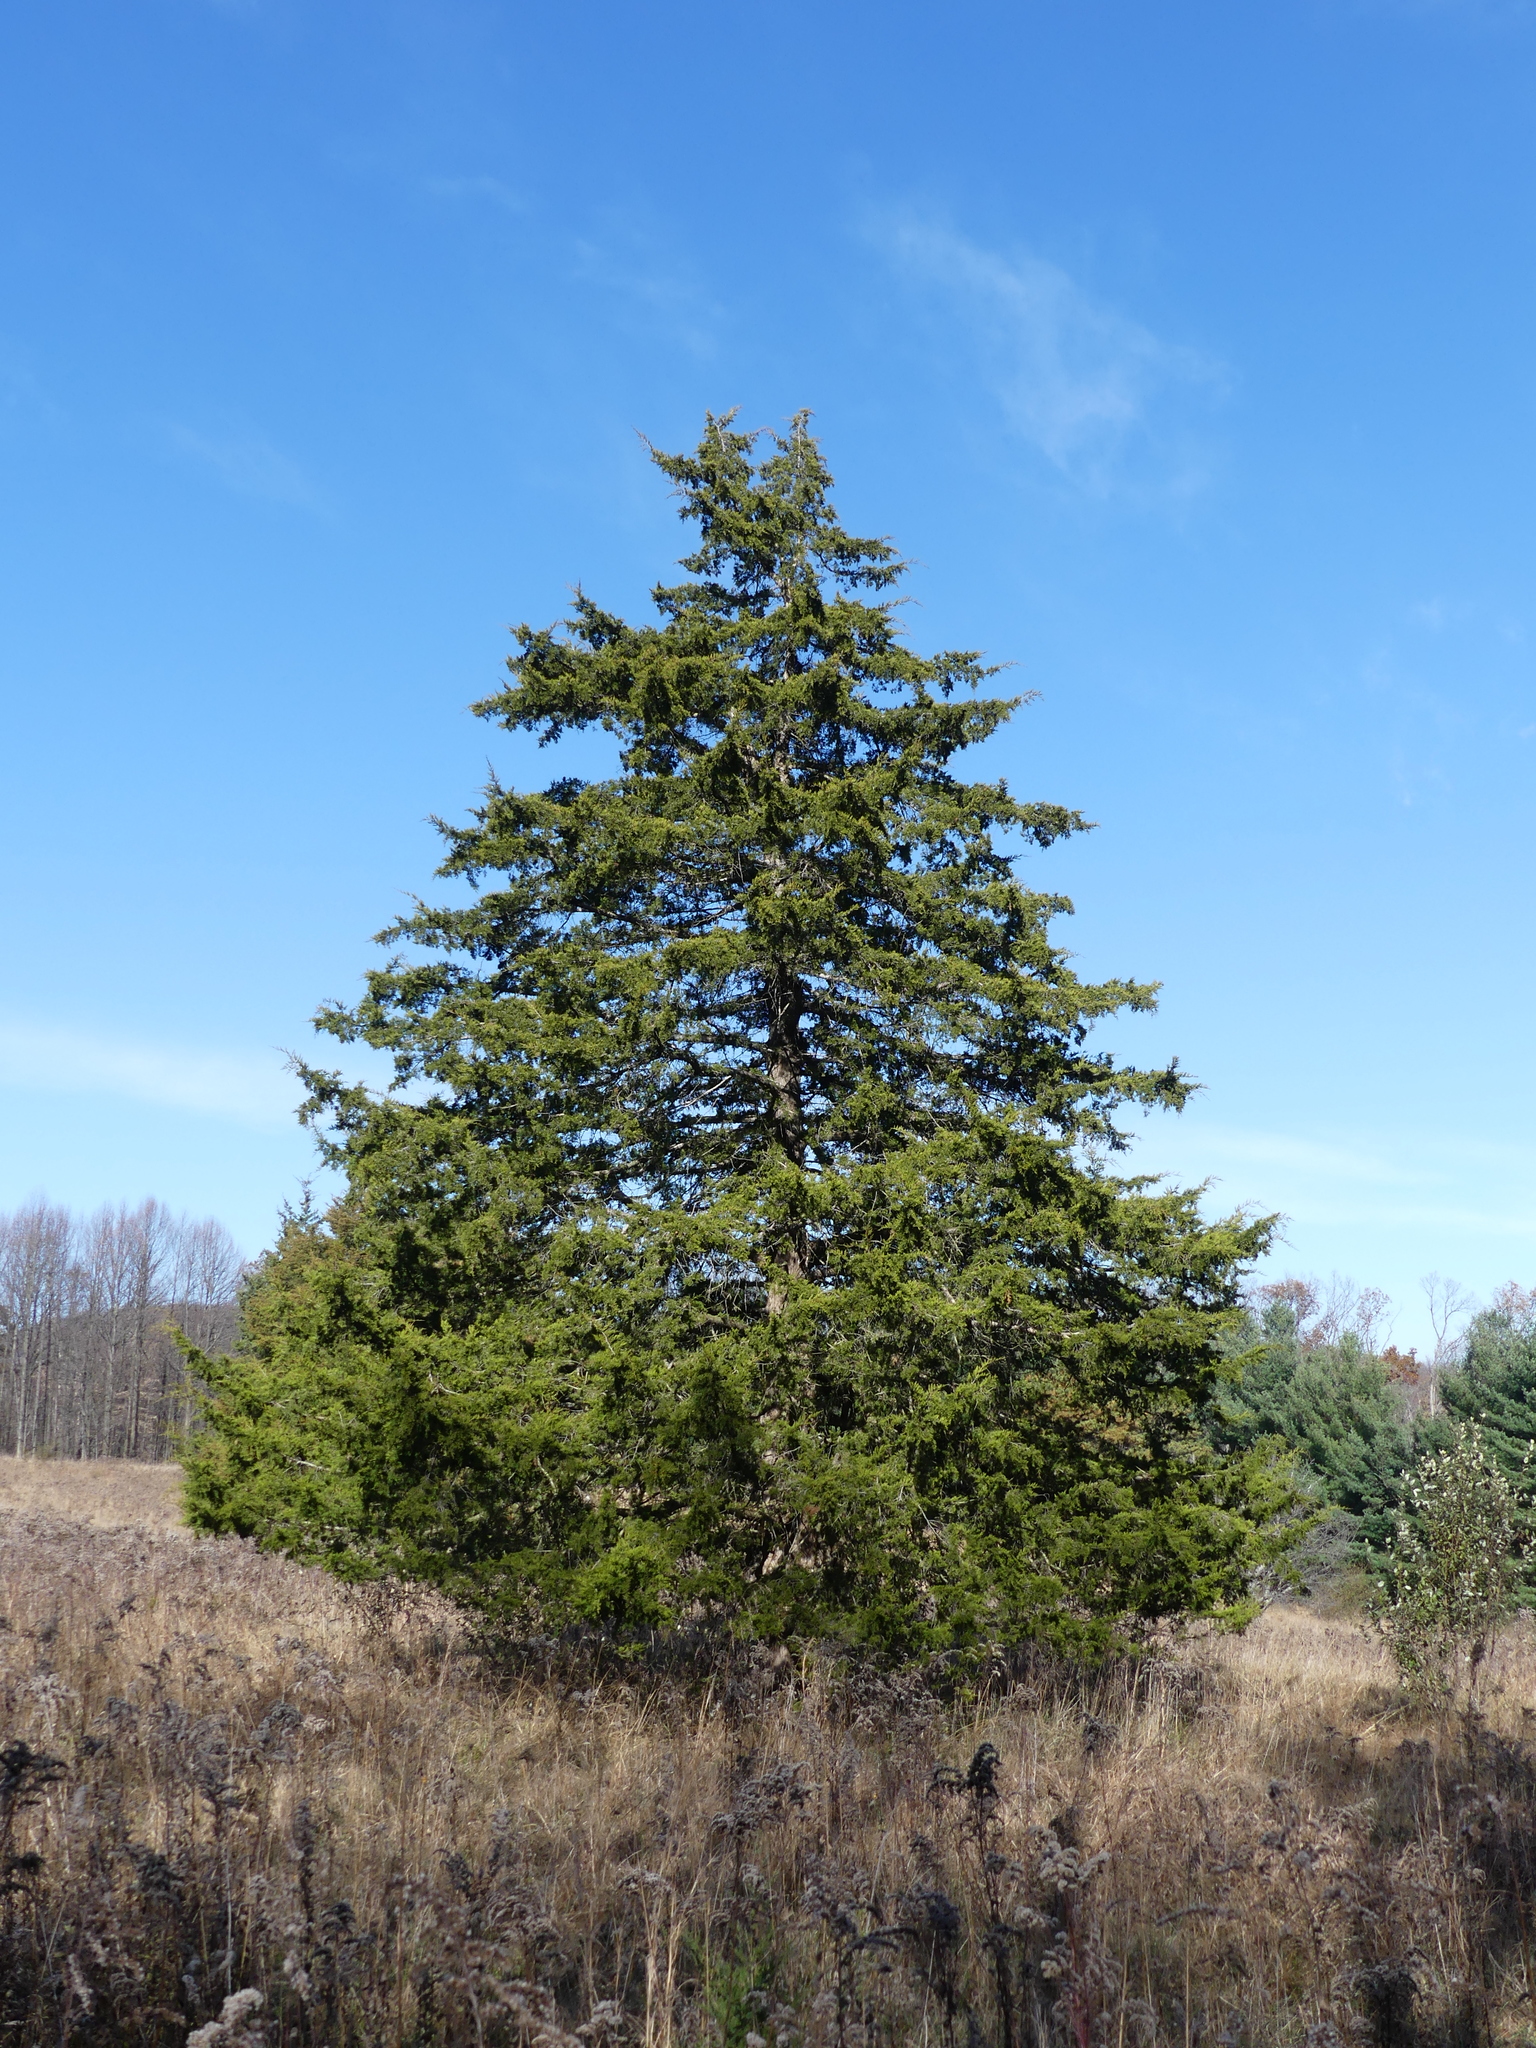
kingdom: Plantae
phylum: Tracheophyta
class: Pinopsida
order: Pinales
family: Cupressaceae
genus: Juniperus
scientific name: Juniperus virginiana
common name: Red juniper
